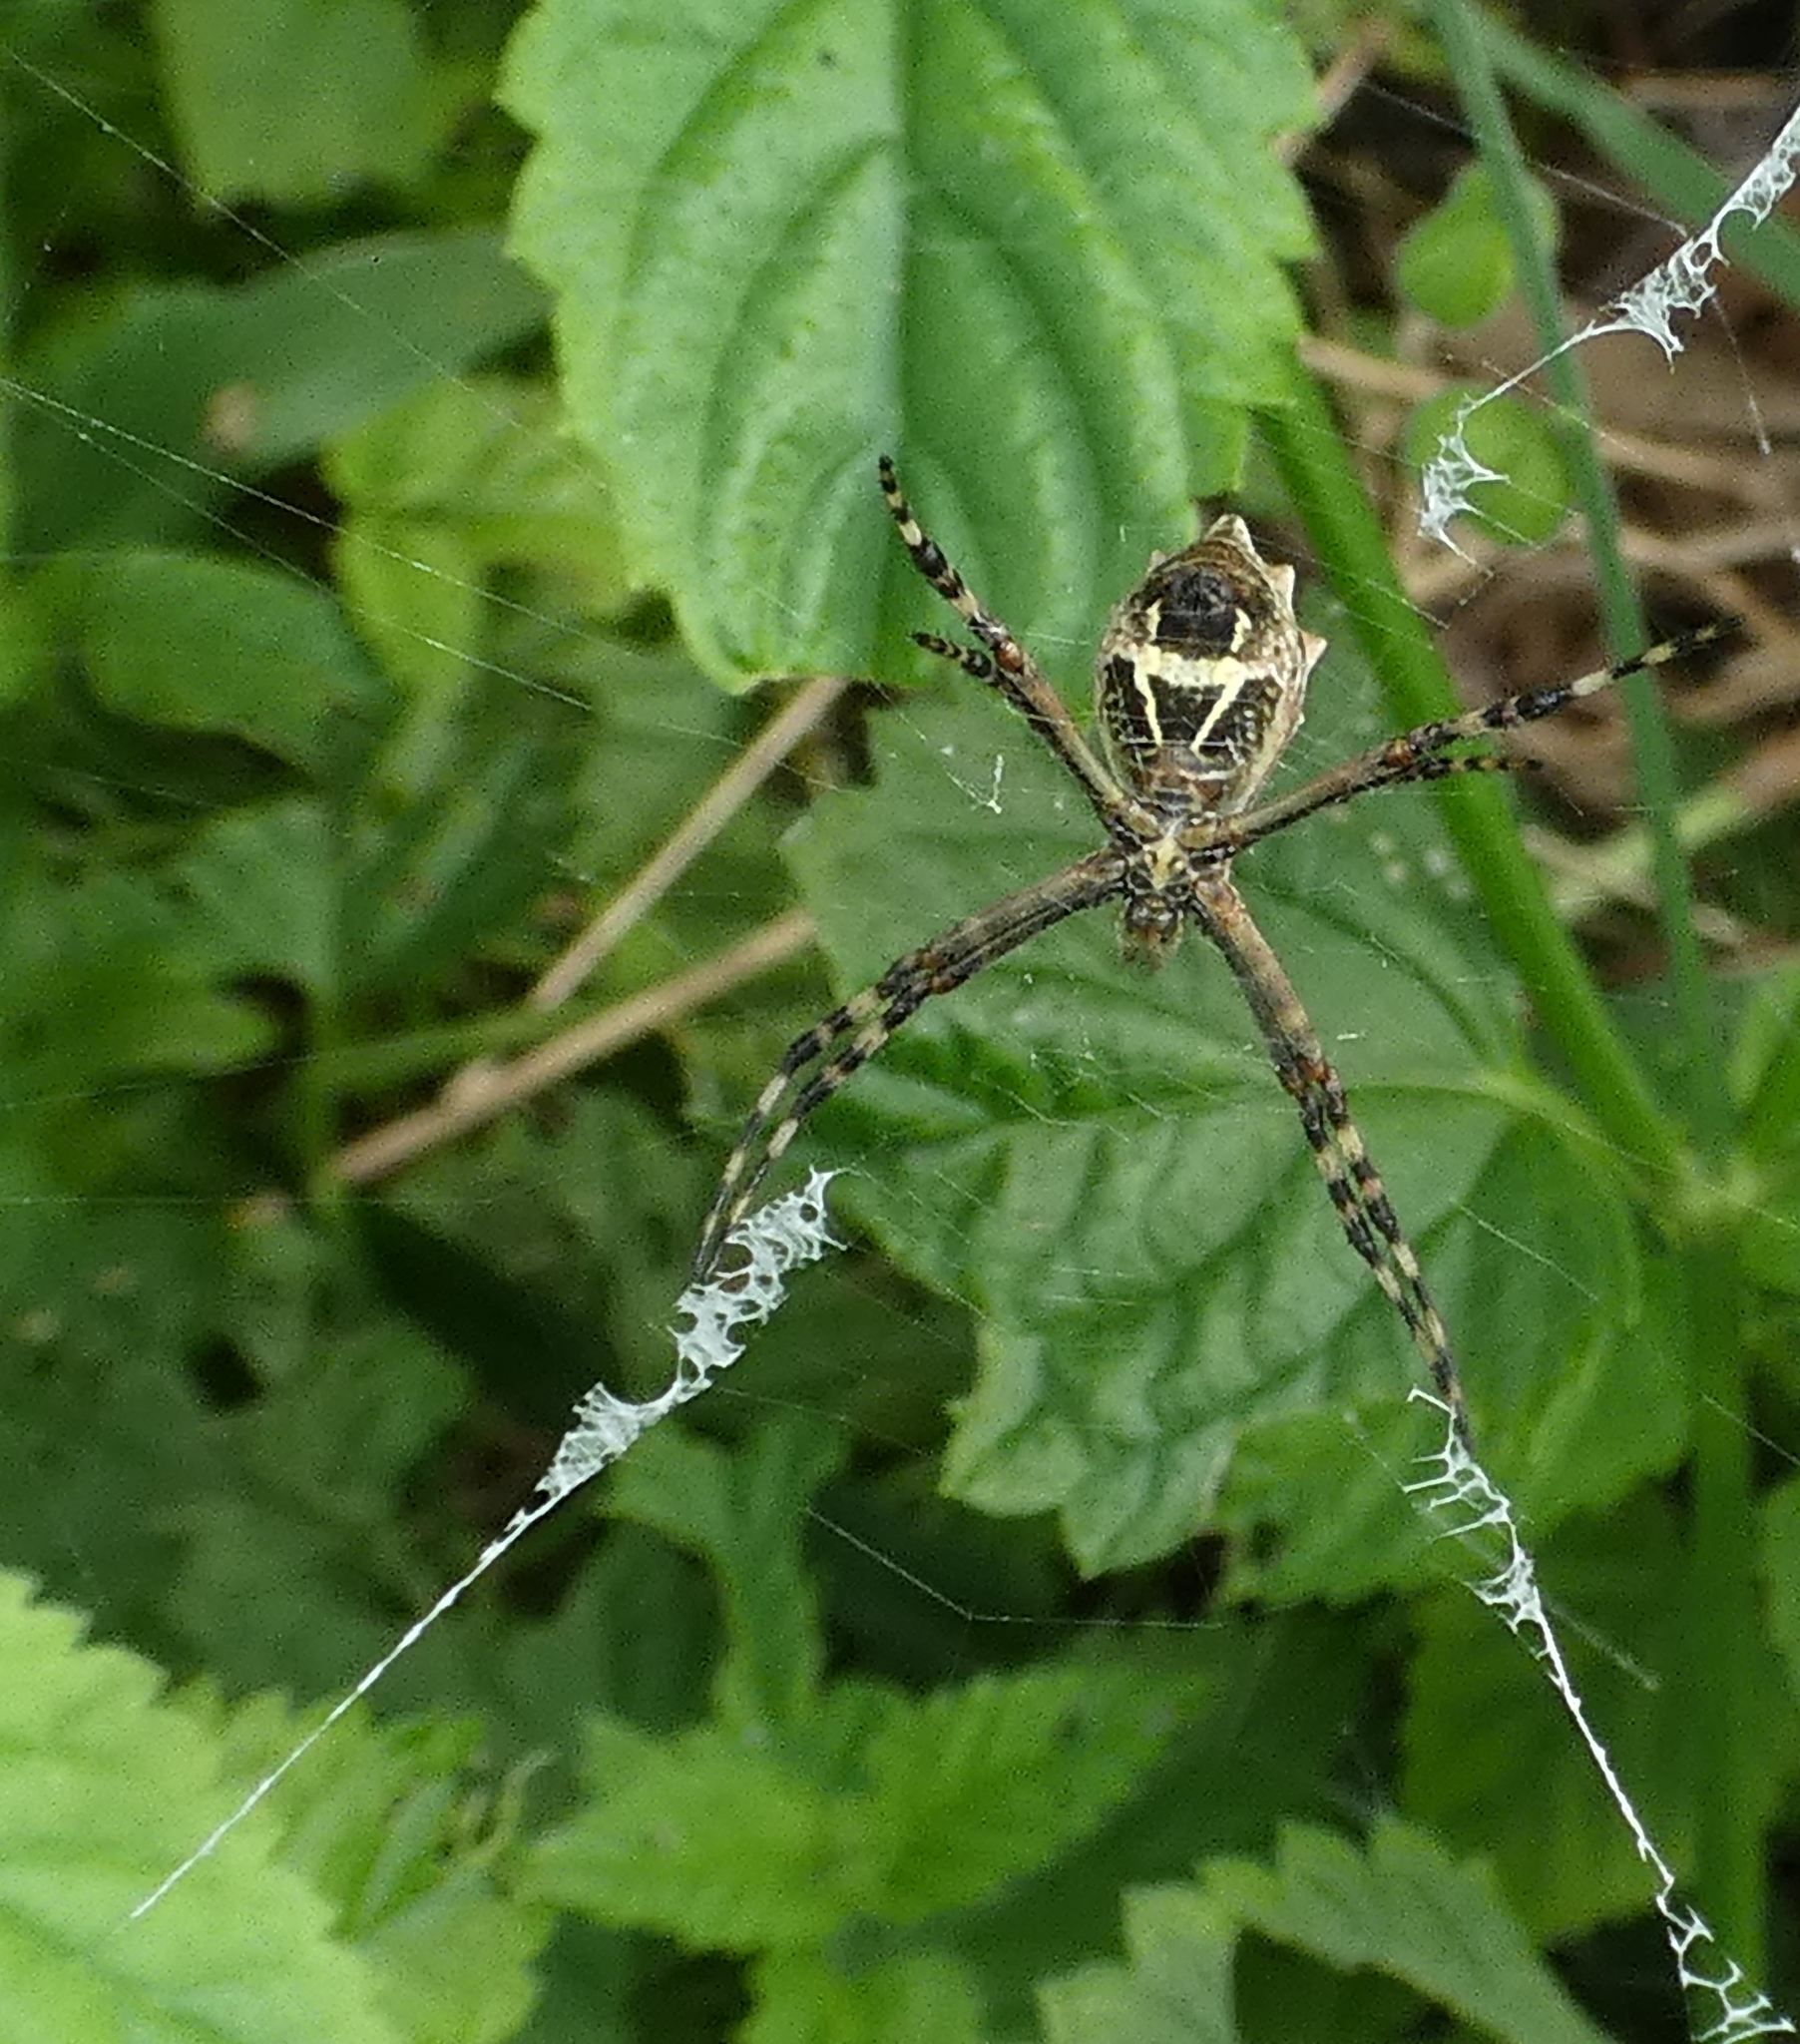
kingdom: Animalia
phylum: Arthropoda
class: Arachnida
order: Araneae
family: Araneidae
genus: Argiope
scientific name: Argiope argentata
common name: Orb weavers
